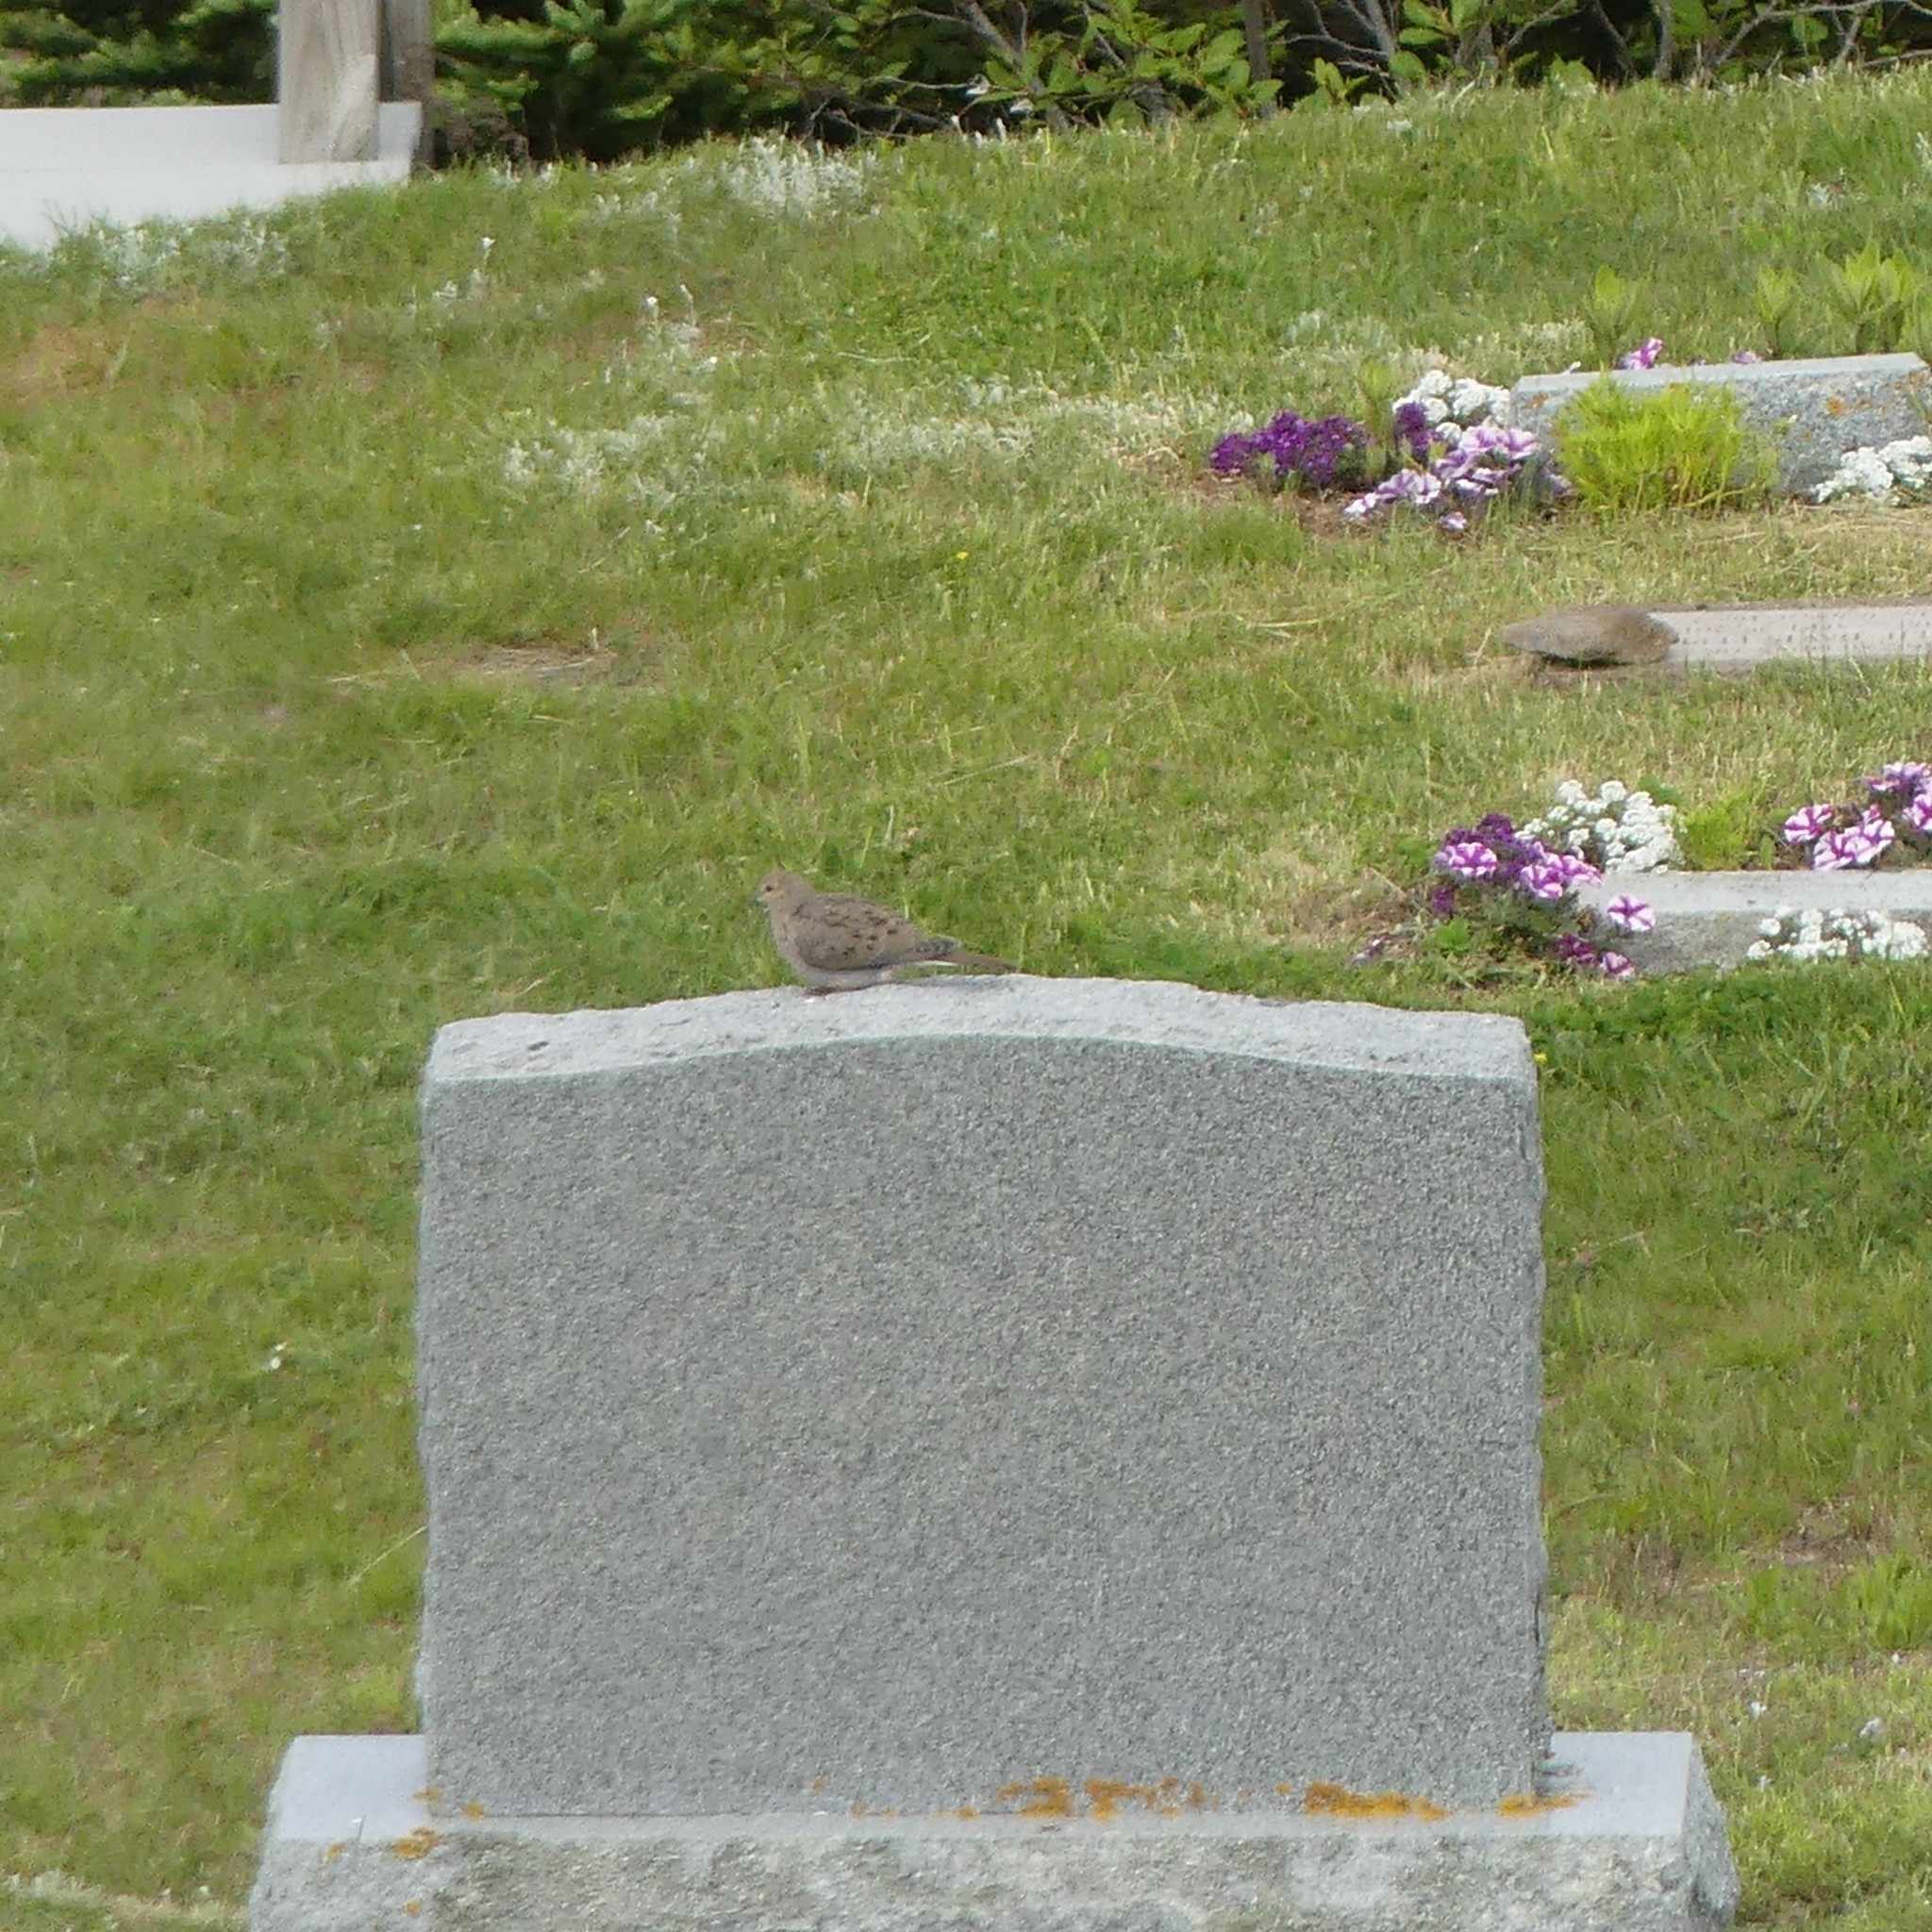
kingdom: Animalia
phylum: Chordata
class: Aves
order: Columbiformes
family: Columbidae
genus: Zenaida
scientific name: Zenaida macroura
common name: Mourning dove
